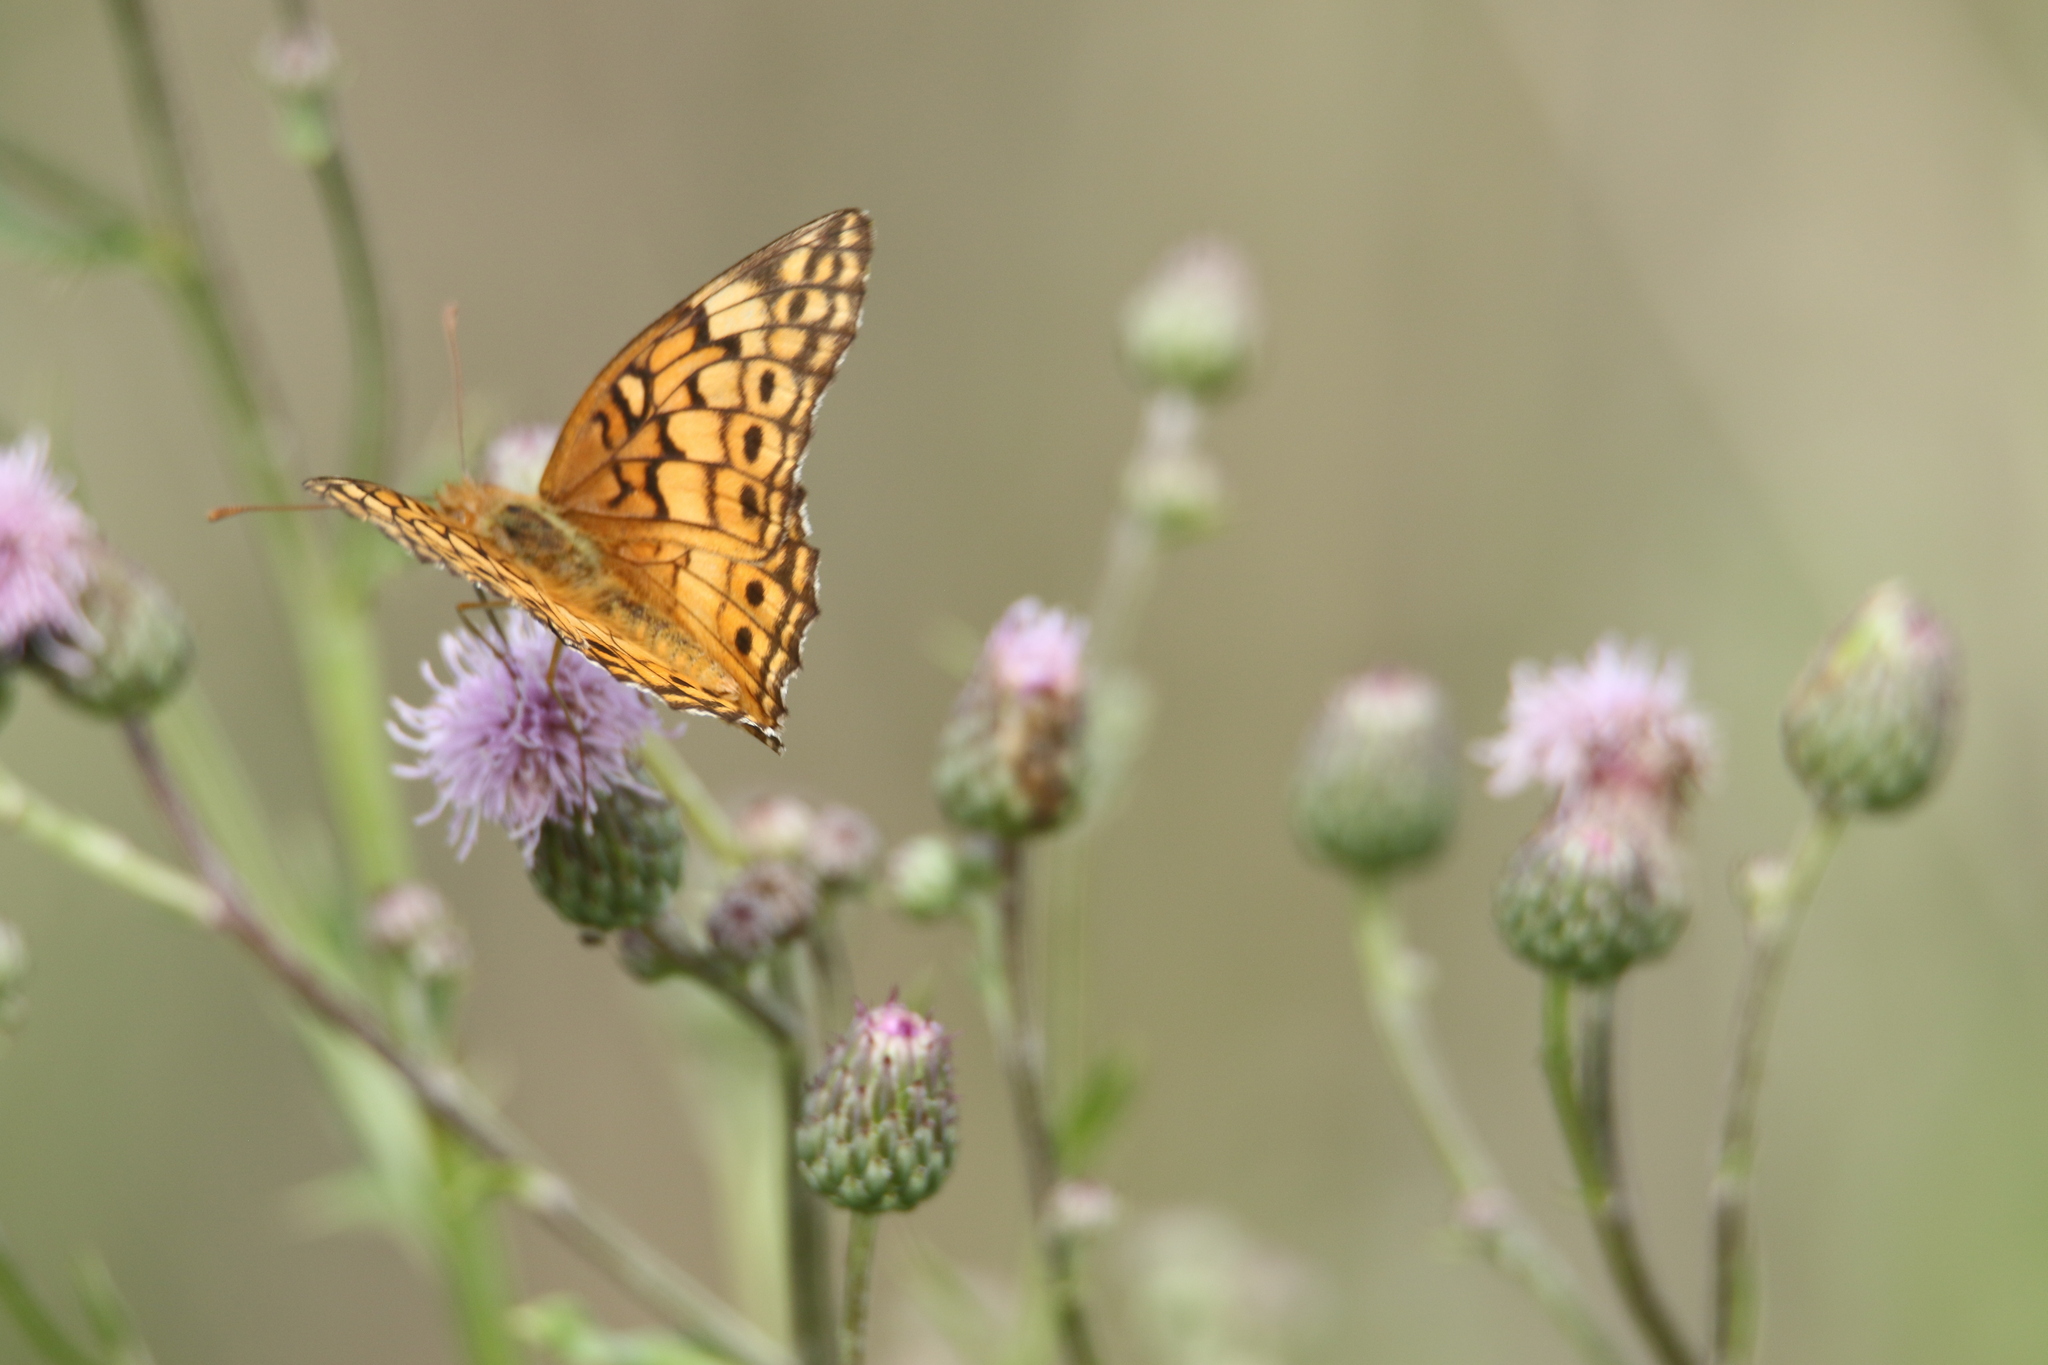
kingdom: Animalia
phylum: Arthropoda
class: Insecta
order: Lepidoptera
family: Nymphalidae
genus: Euptoieta
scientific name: Euptoieta claudia
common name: Variegated fritillary
